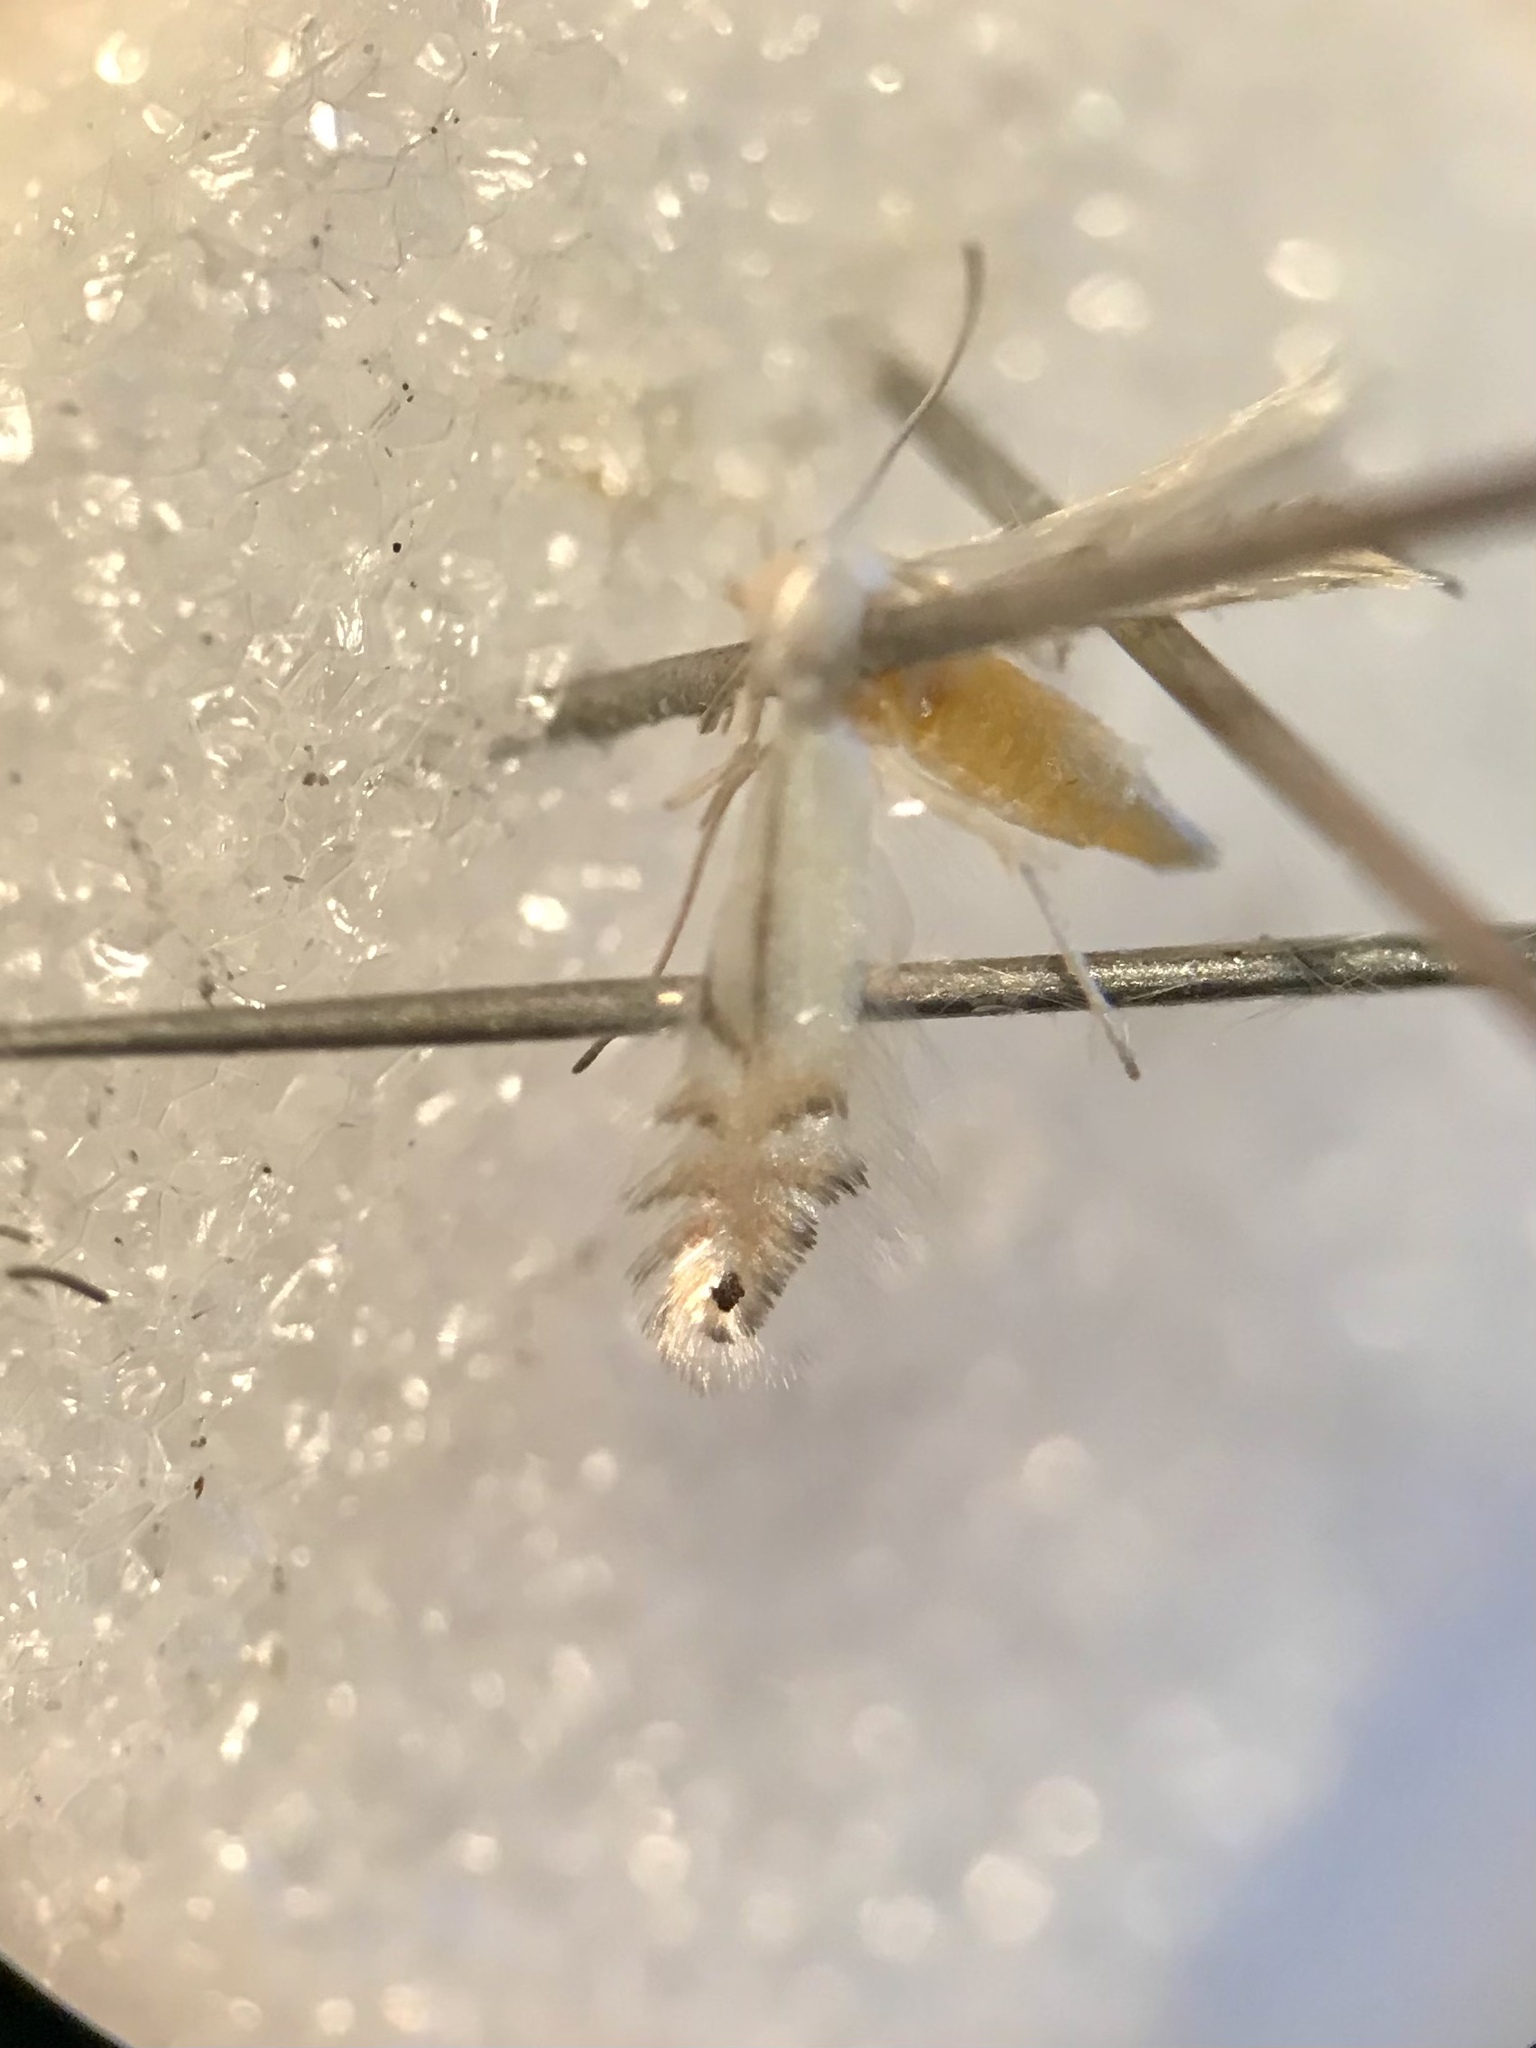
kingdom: Animalia
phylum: Arthropoda
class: Insecta
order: Lepidoptera
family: Gracillariidae
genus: Phyllonorycter
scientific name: Phyllonorycter argentifimbriella
